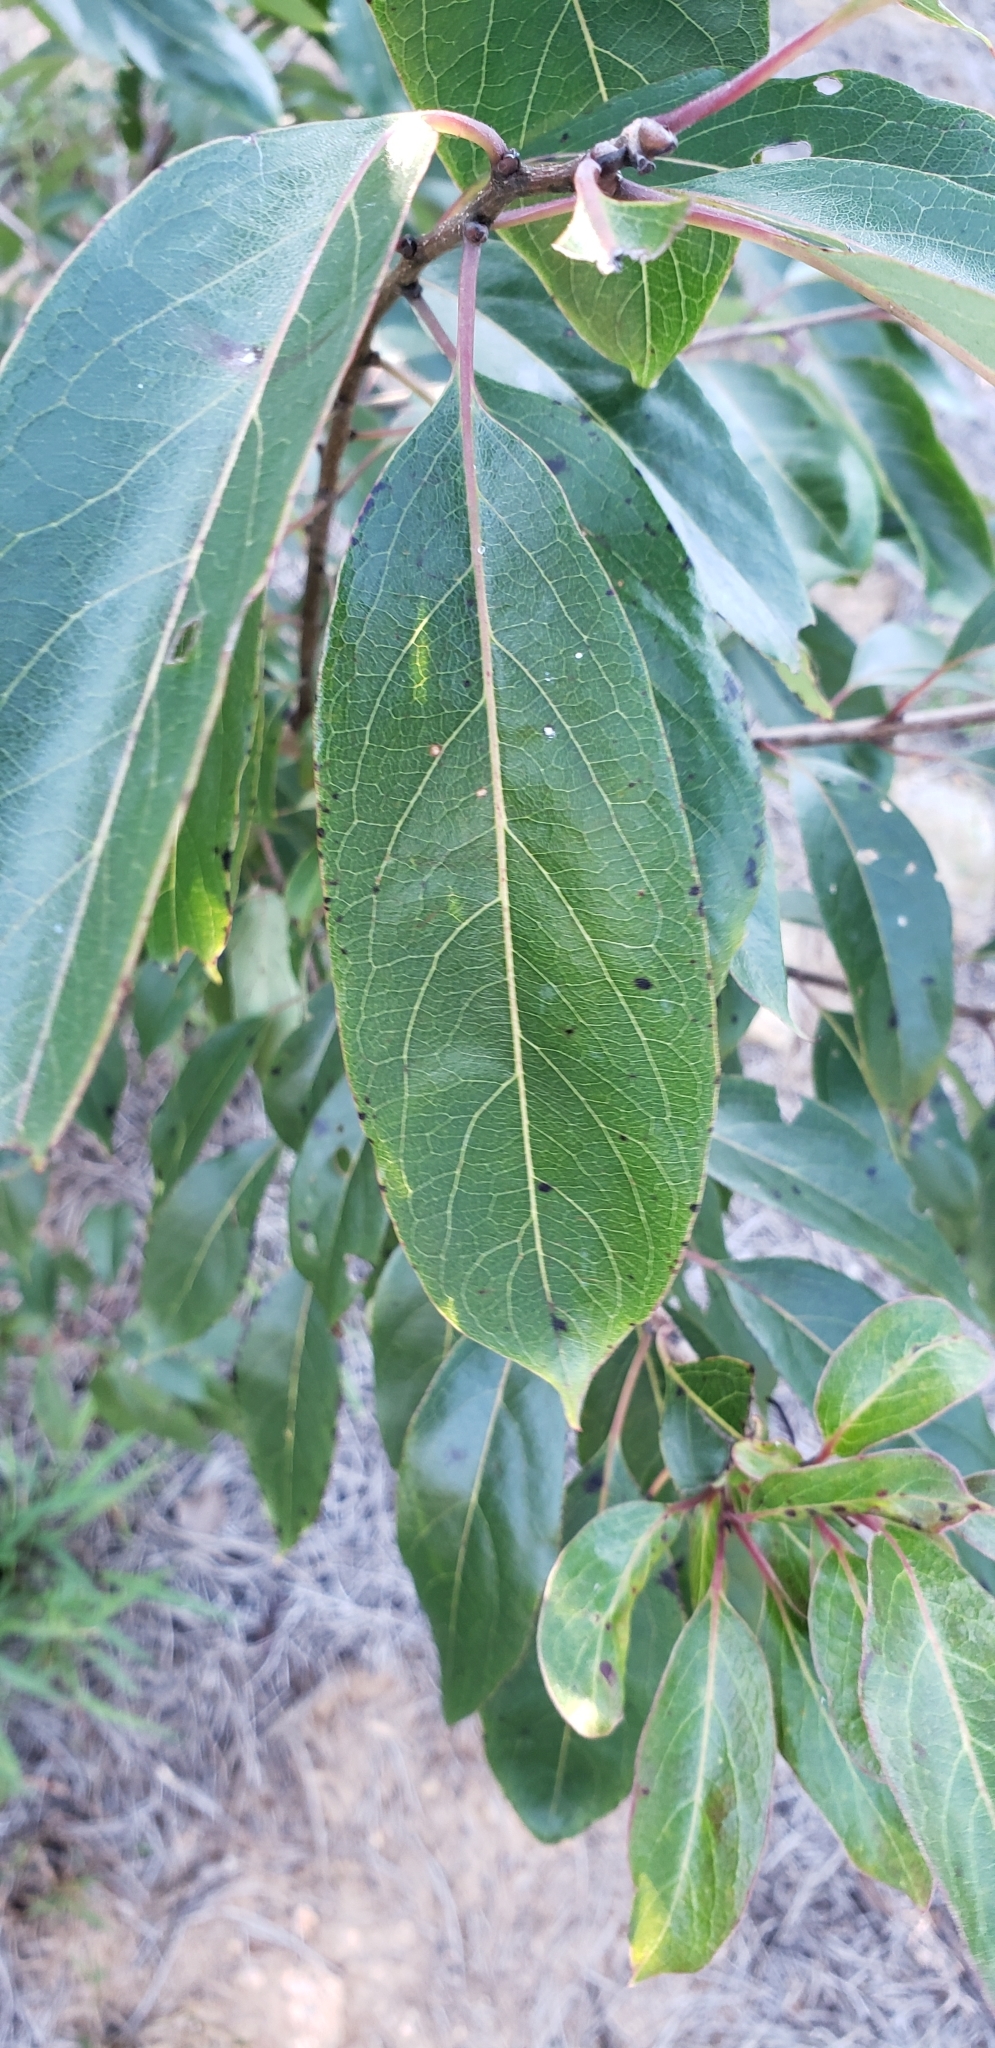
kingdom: Plantae
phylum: Tracheophyta
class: Magnoliopsida
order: Ericales
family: Ebenaceae
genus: Diospyros
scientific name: Diospyros virginiana
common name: Persimmon
